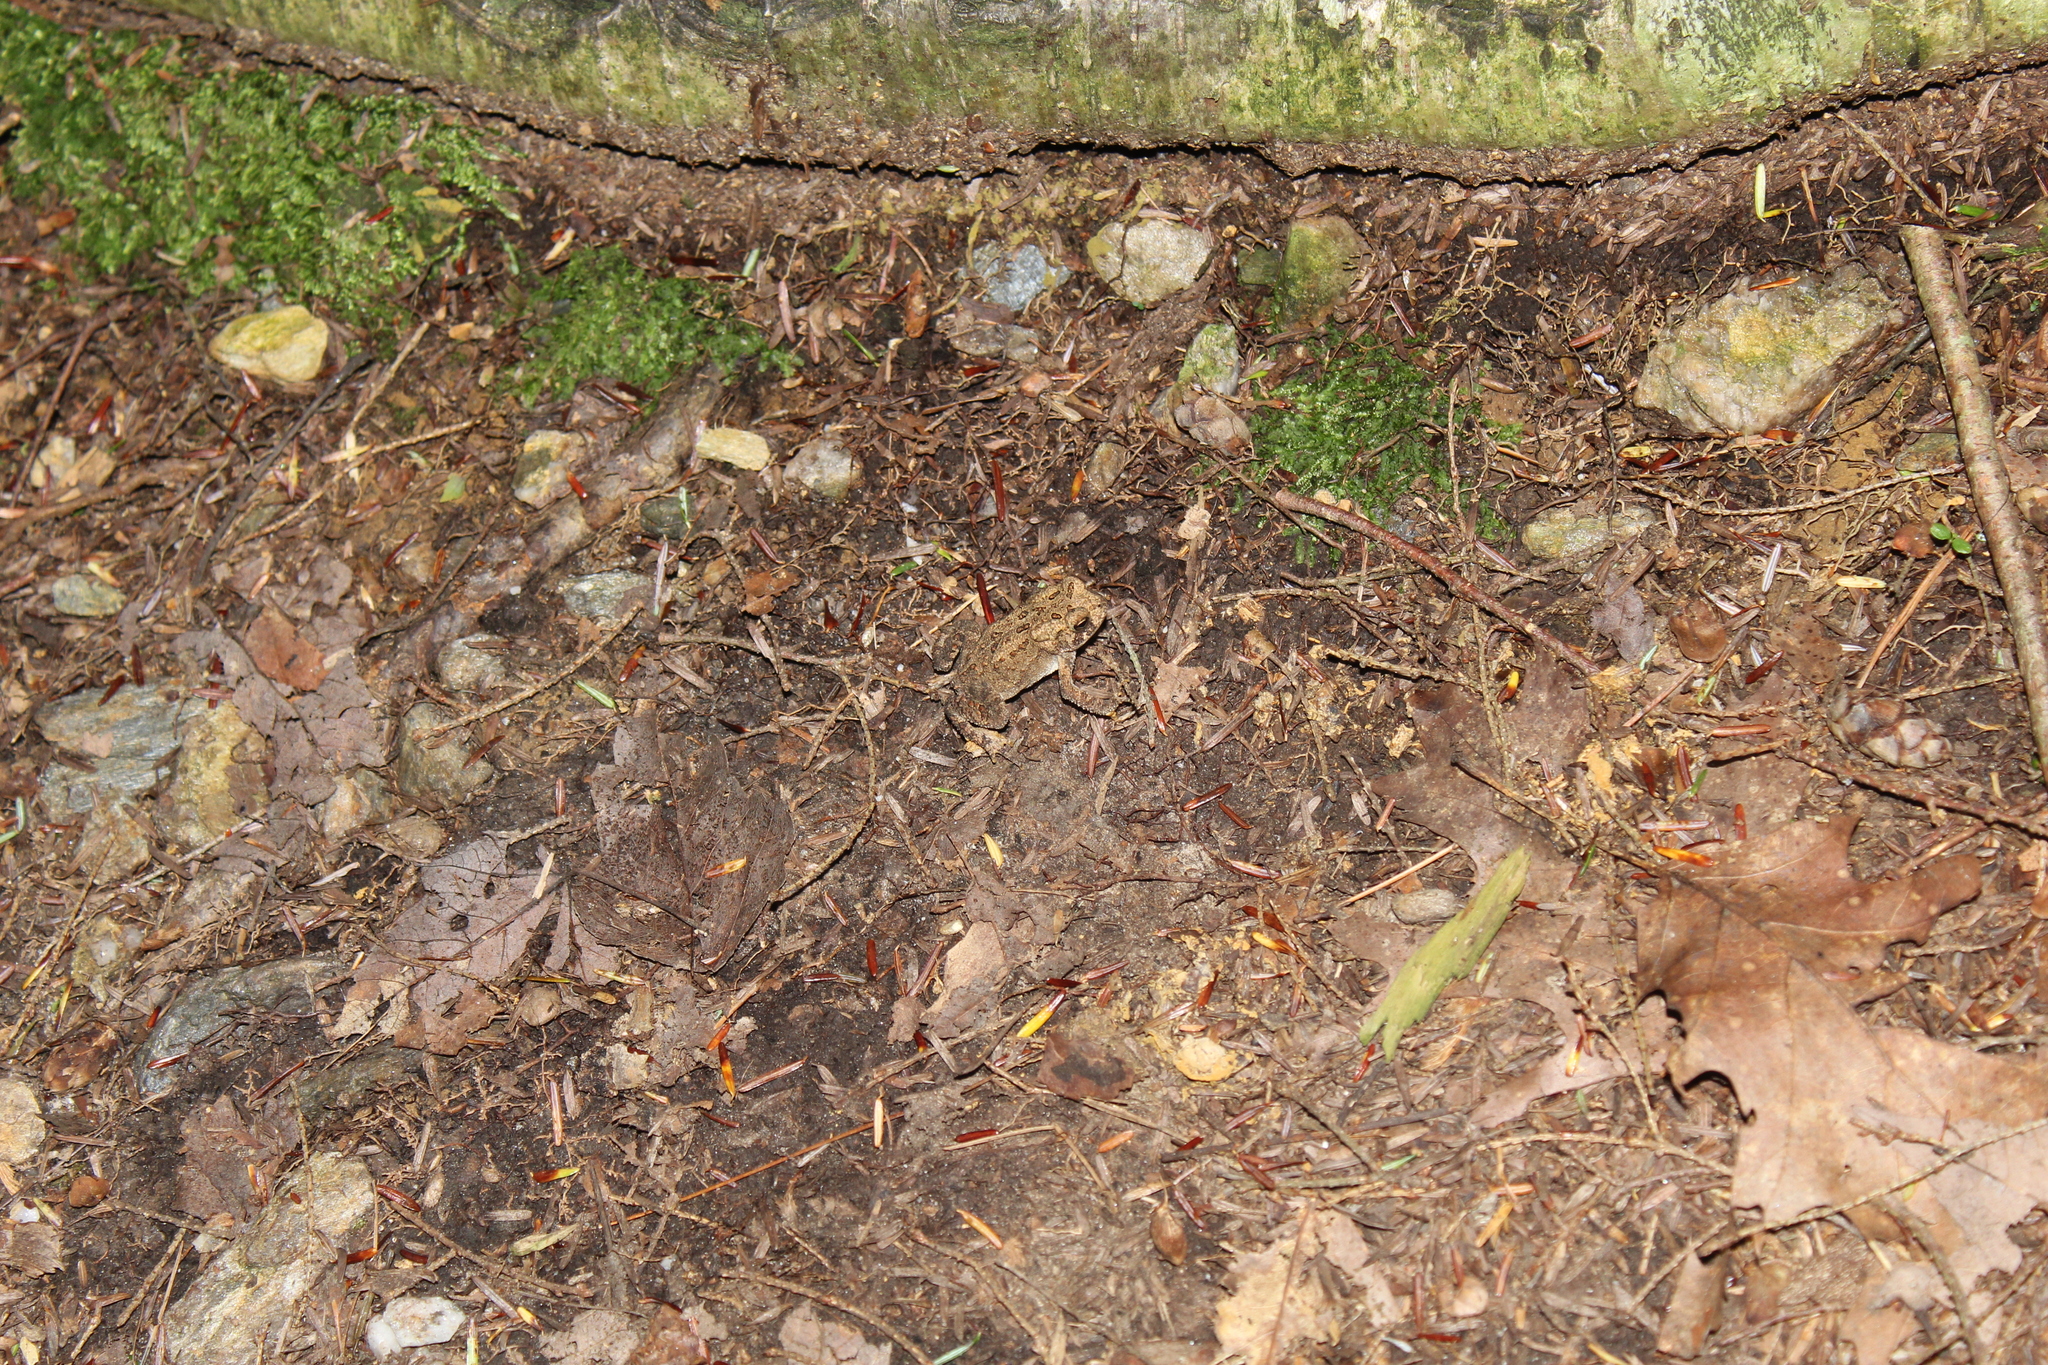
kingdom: Animalia
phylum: Chordata
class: Amphibia
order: Anura
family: Bufonidae
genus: Anaxyrus
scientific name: Anaxyrus americanus
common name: American toad
